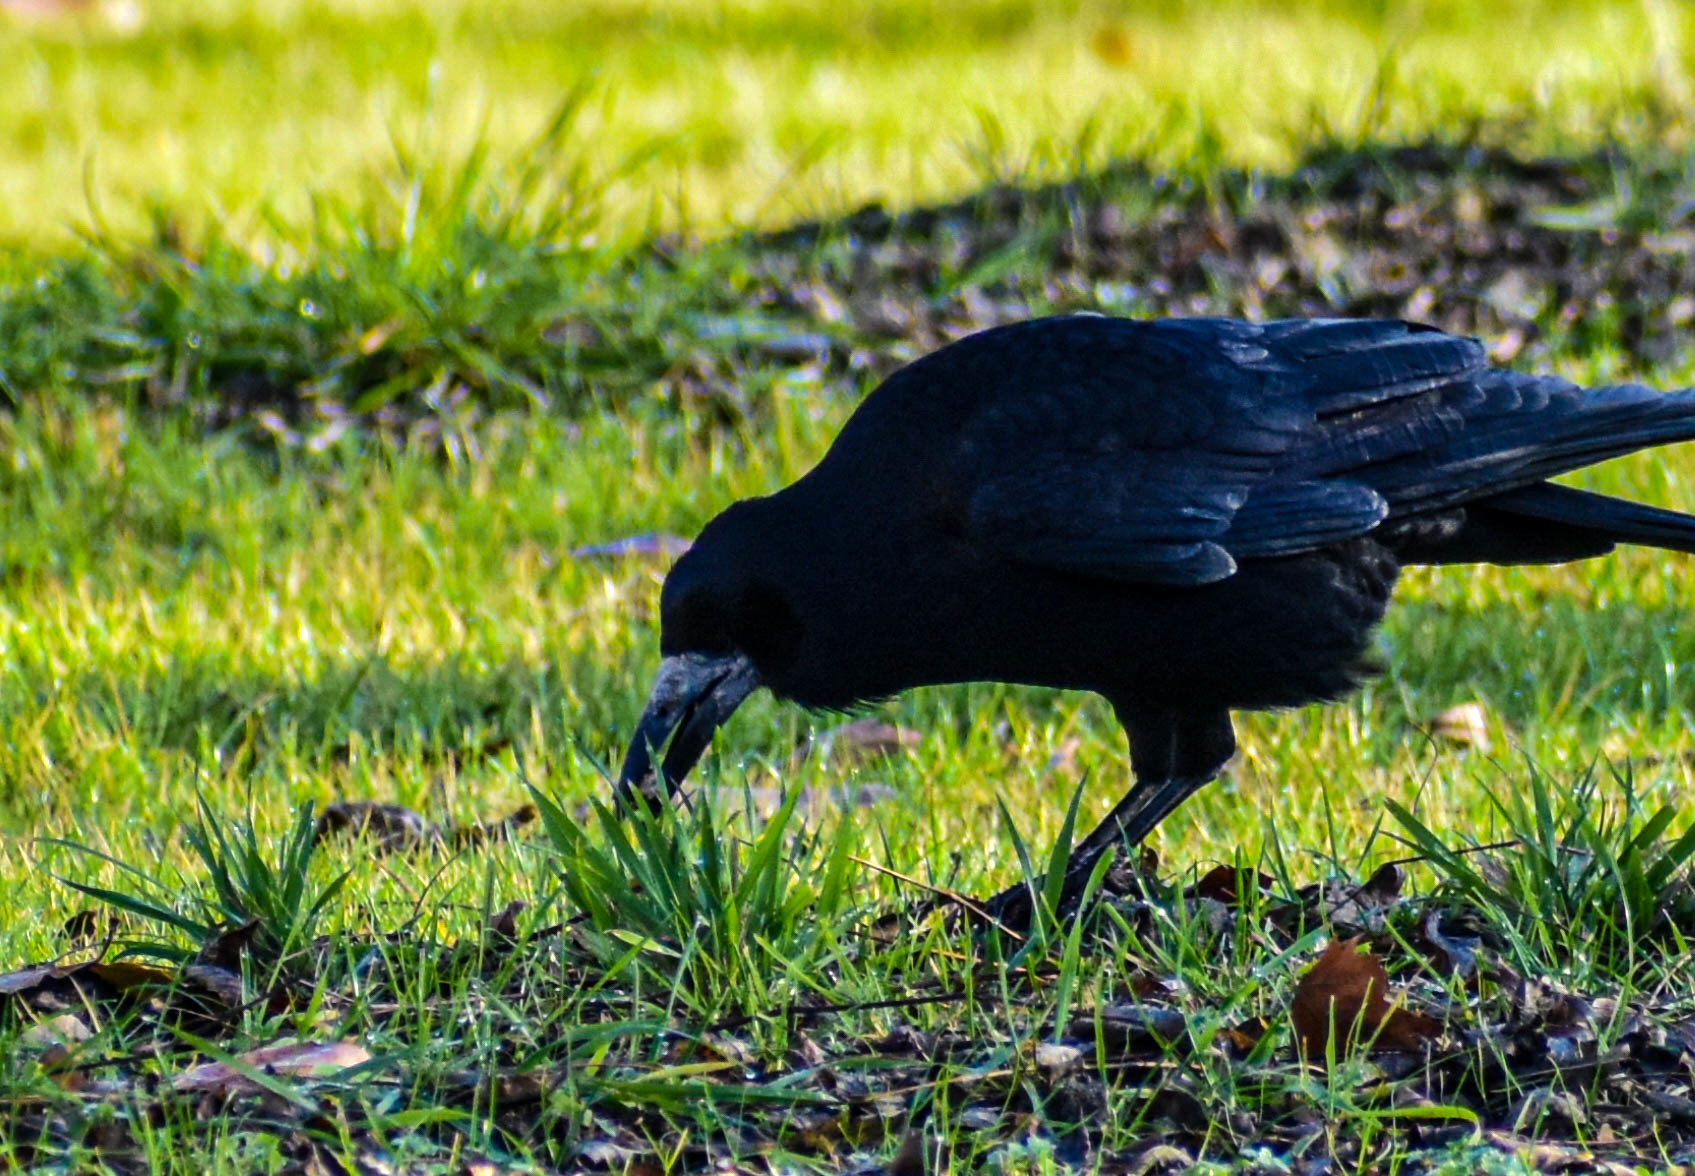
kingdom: Animalia
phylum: Chordata
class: Aves
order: Passeriformes
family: Corvidae
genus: Corvus
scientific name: Corvus frugilegus
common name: Rook
